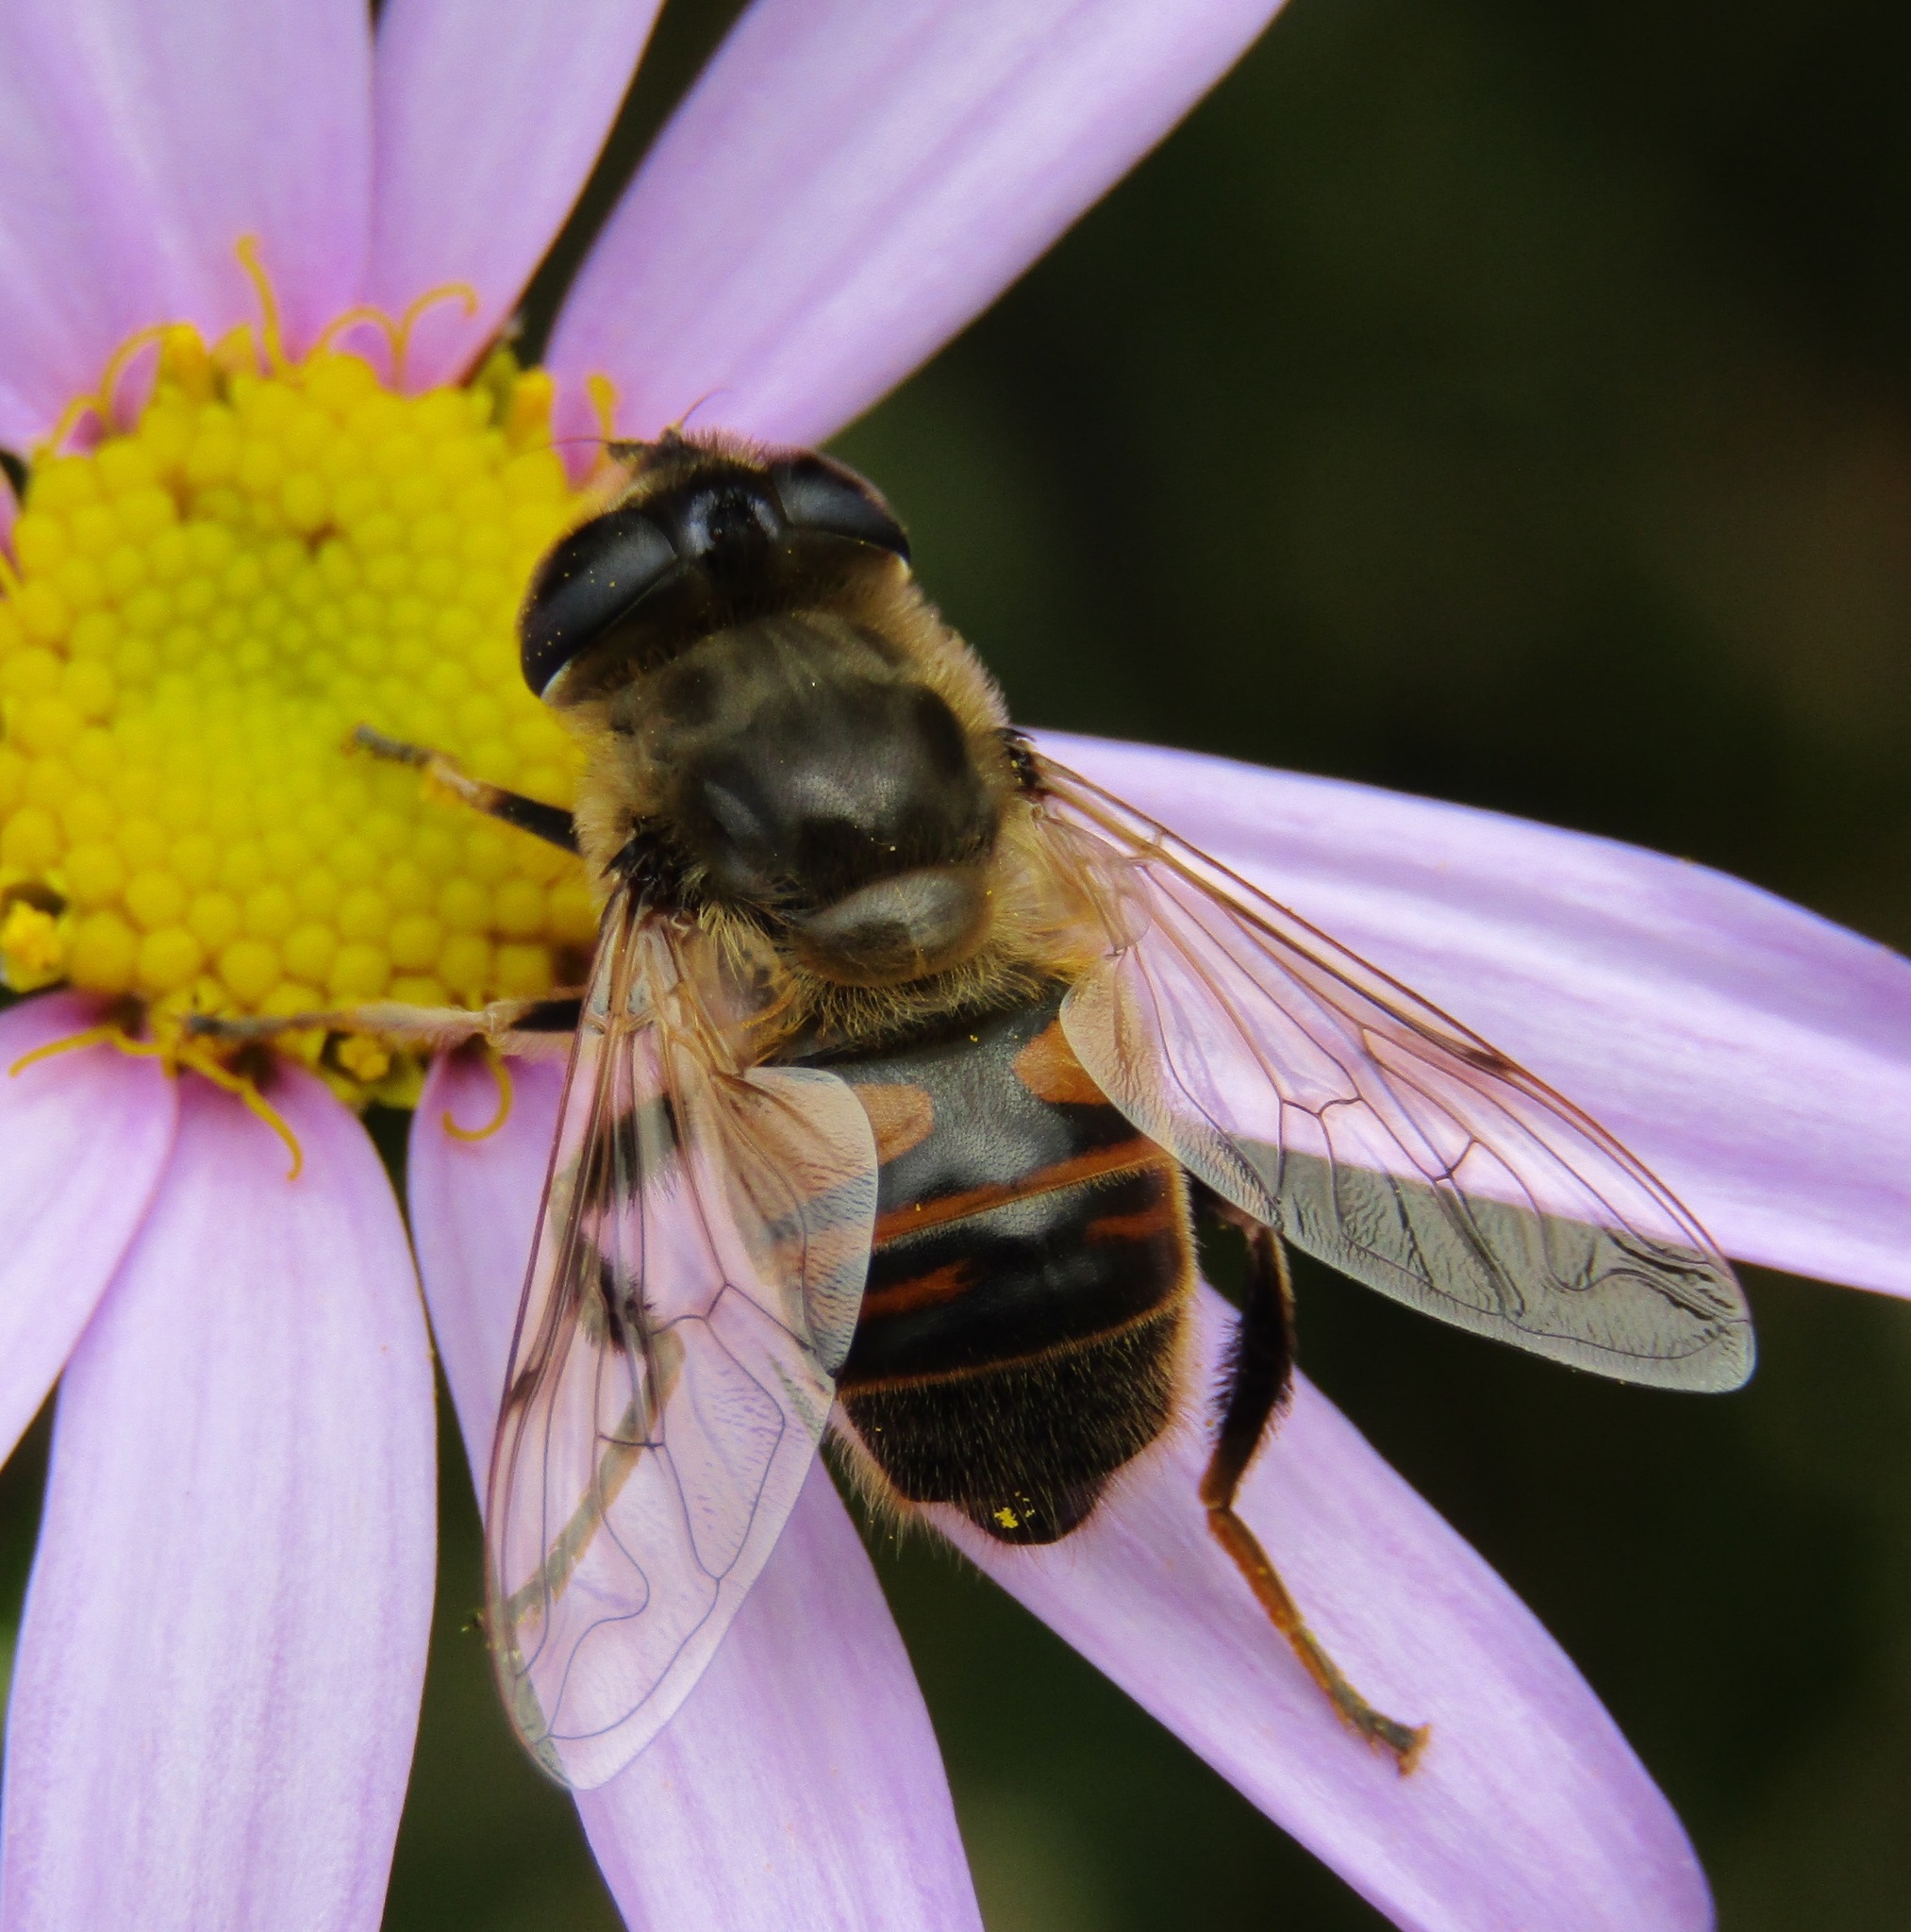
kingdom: Animalia
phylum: Arthropoda
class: Insecta
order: Diptera
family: Syrphidae
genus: Eristalis
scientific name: Eristalis tenax
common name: Drone fly
